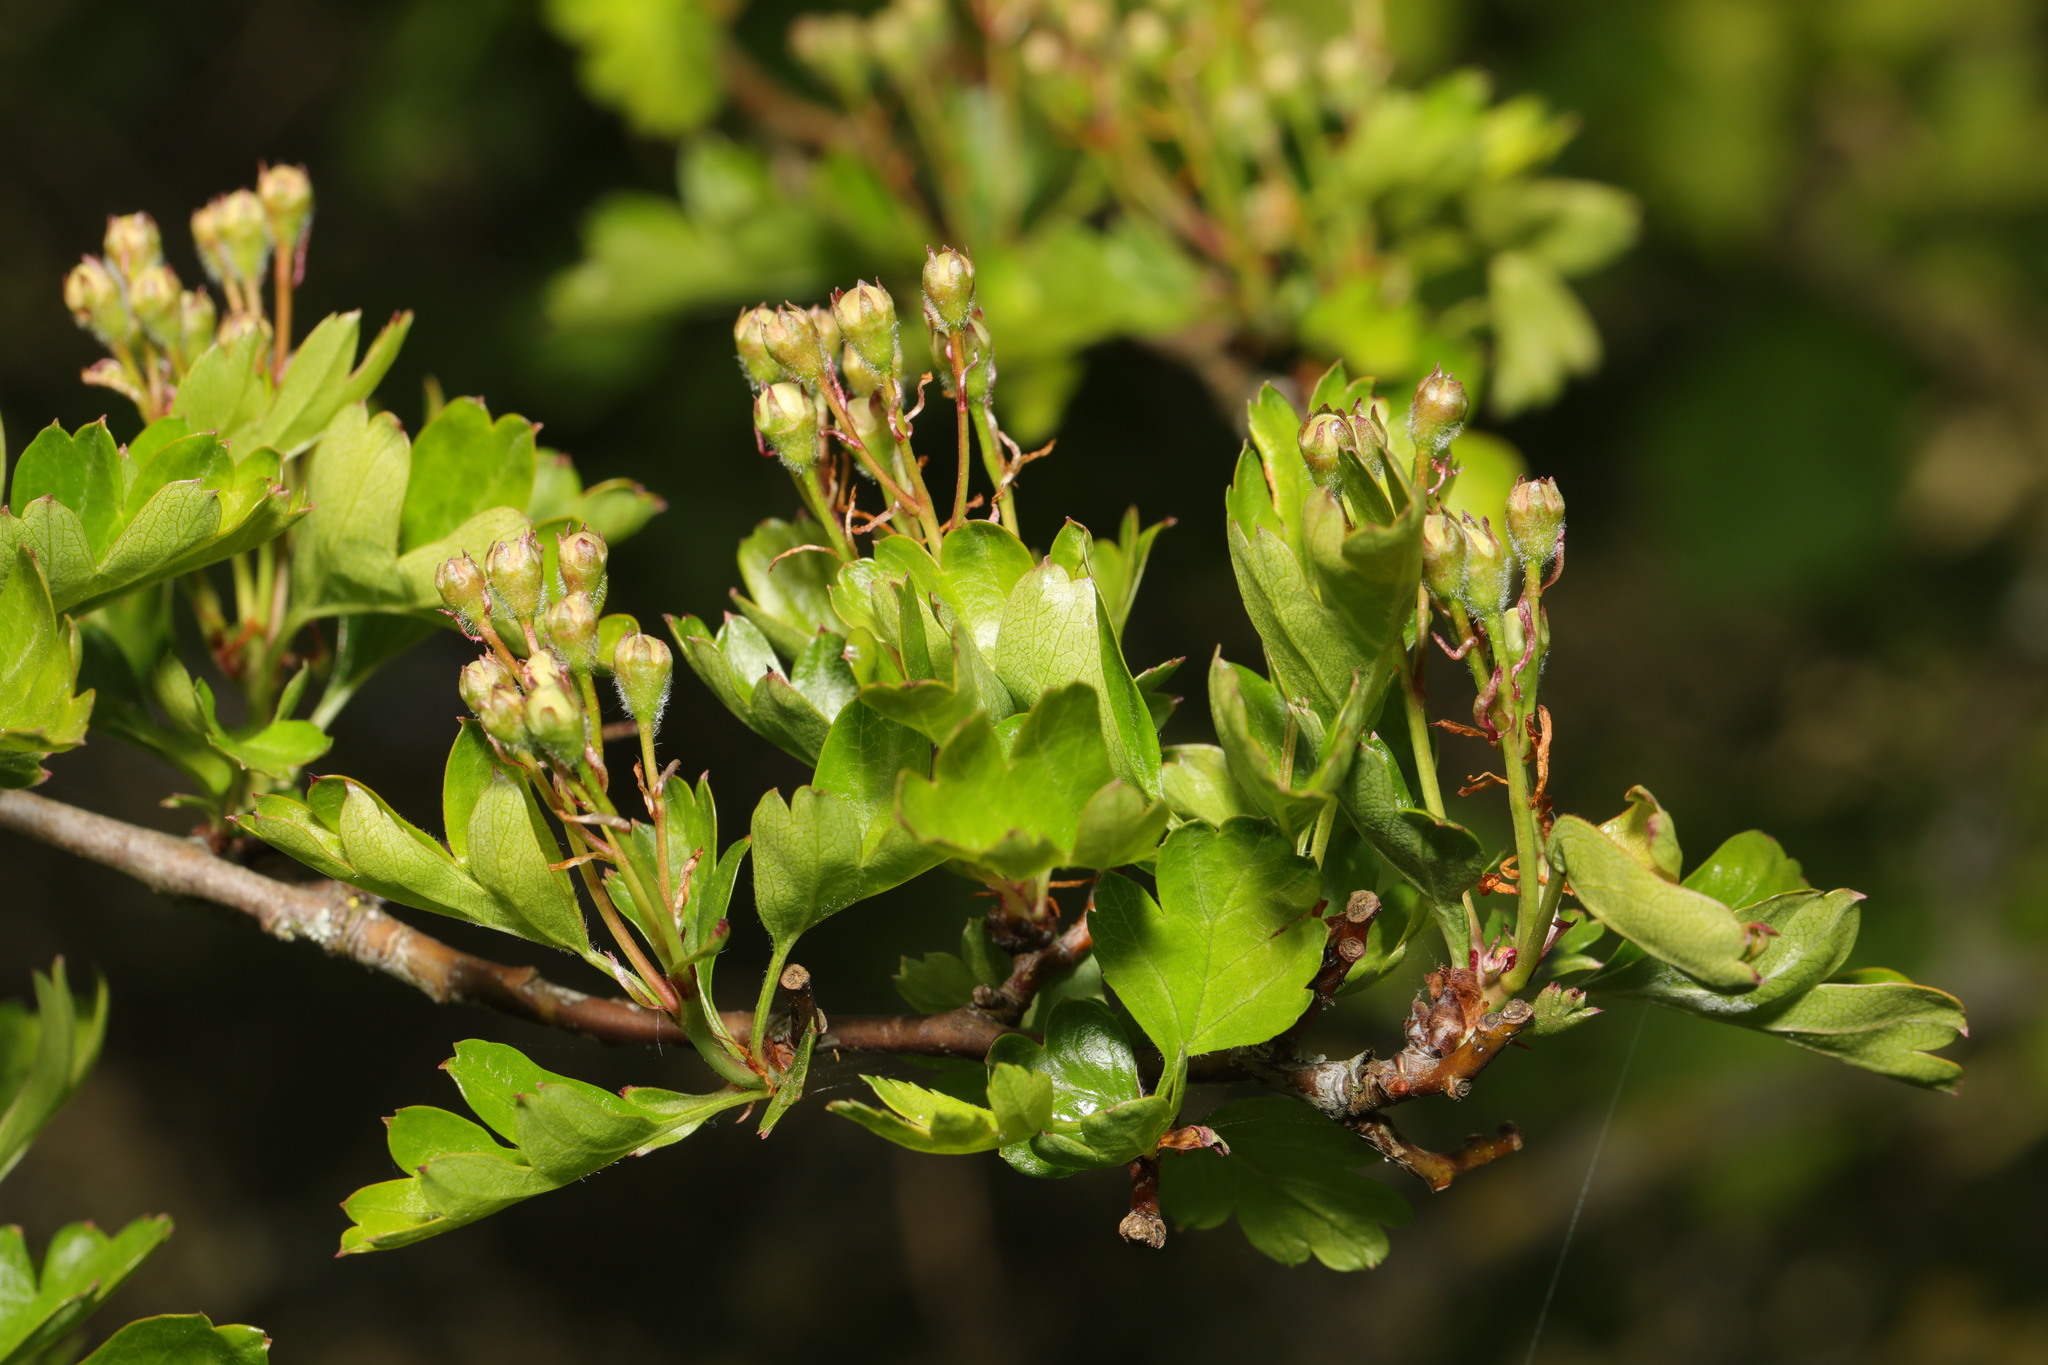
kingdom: Plantae
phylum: Tracheophyta
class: Magnoliopsida
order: Rosales
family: Rosaceae
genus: Crataegus
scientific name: Crataegus monogyna
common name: Hawthorn
